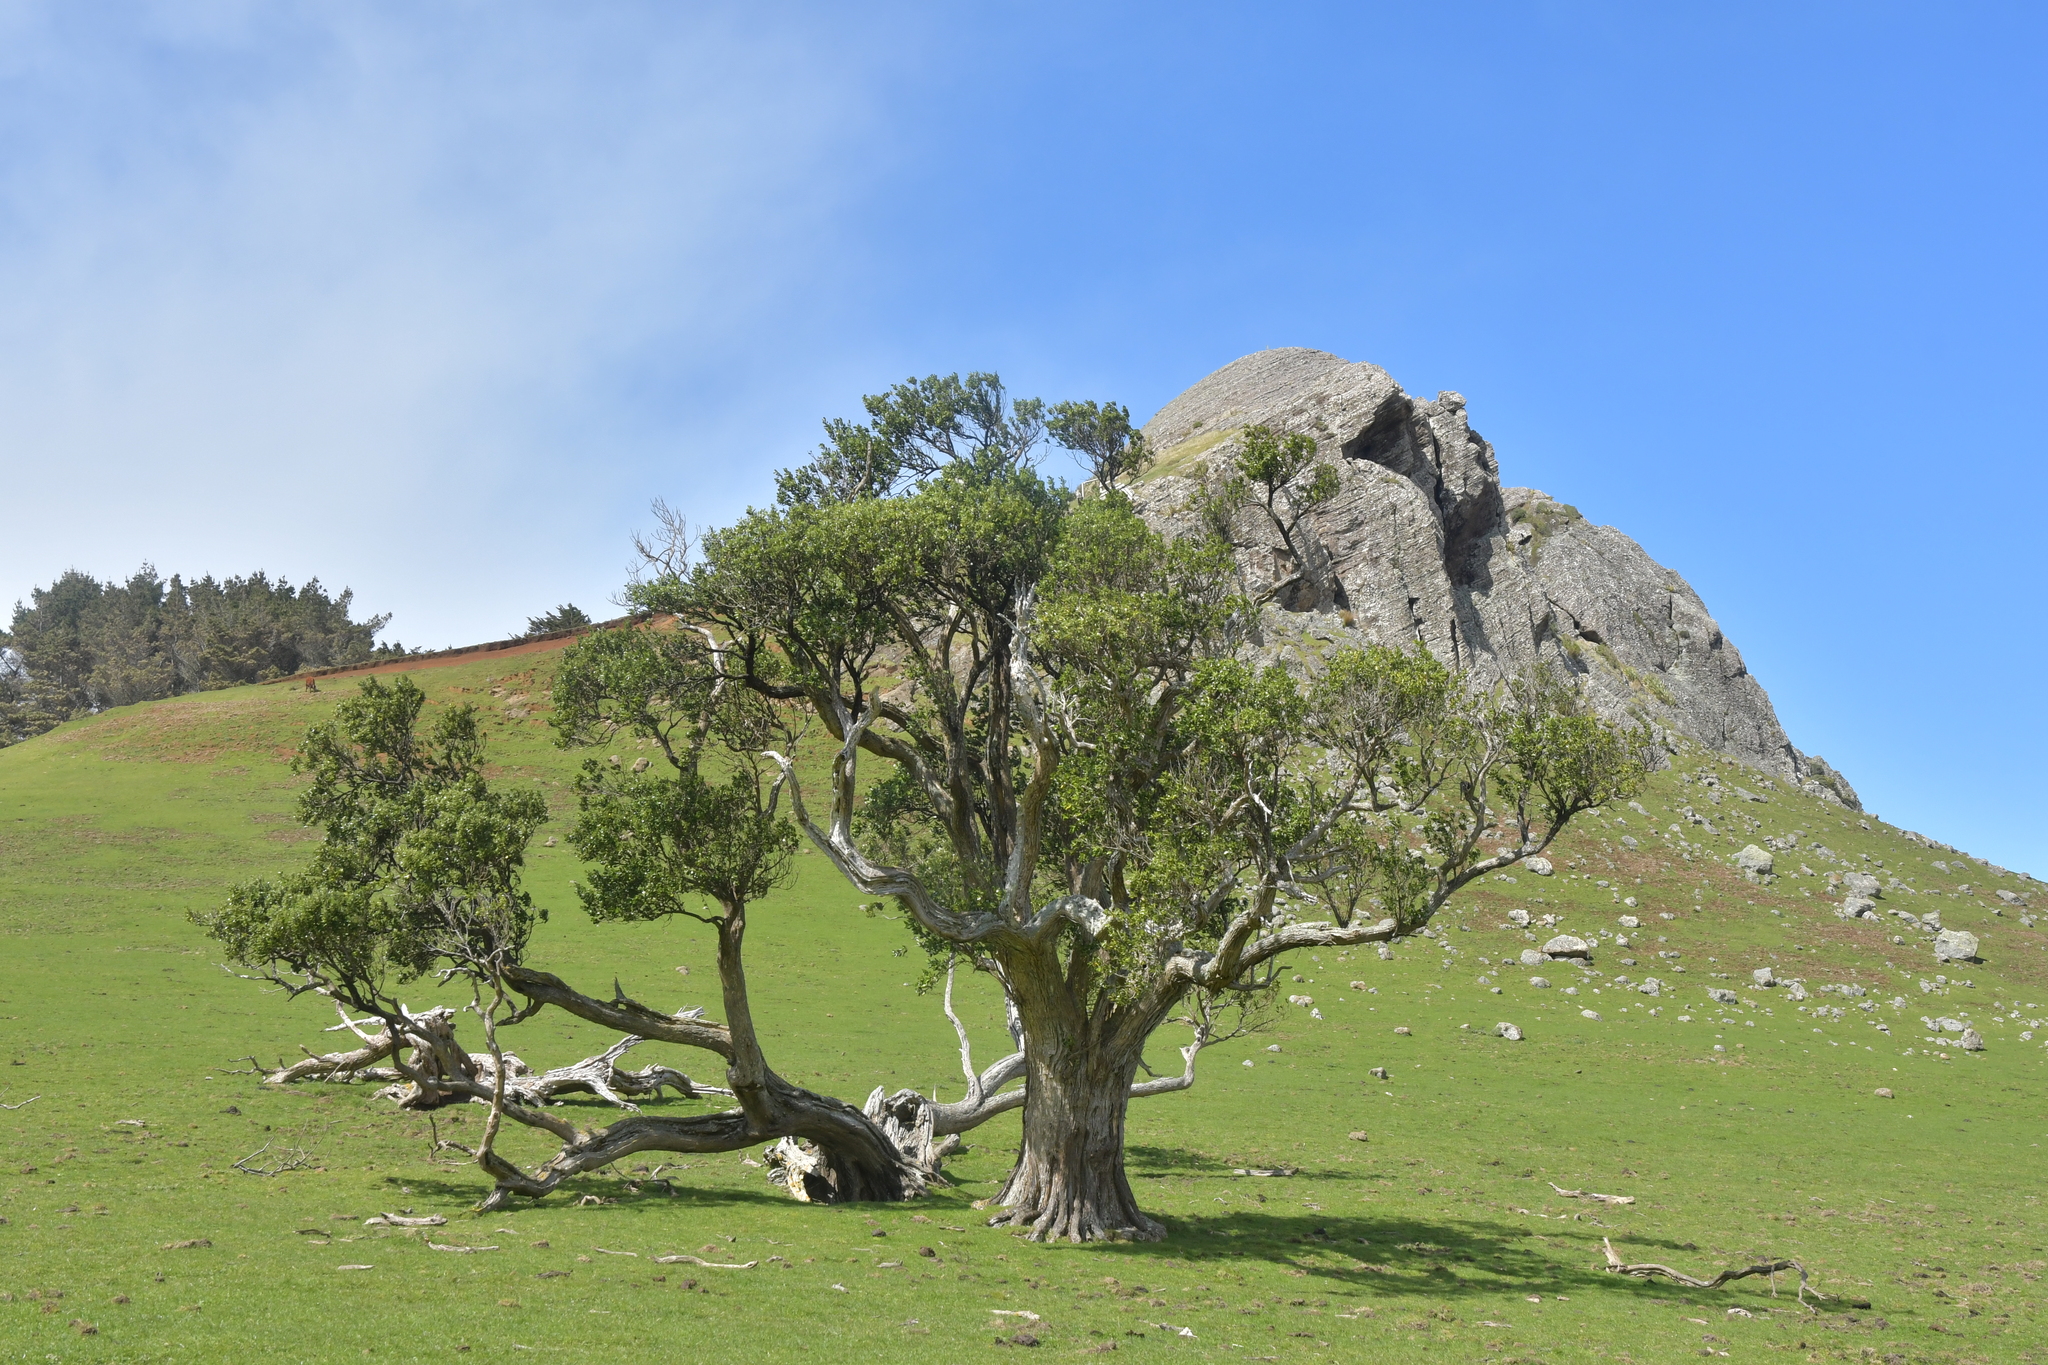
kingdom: Plantae
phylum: Tracheophyta
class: Magnoliopsida
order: Asterales
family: Asteraceae
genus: Olearia
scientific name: Olearia traversiorum
